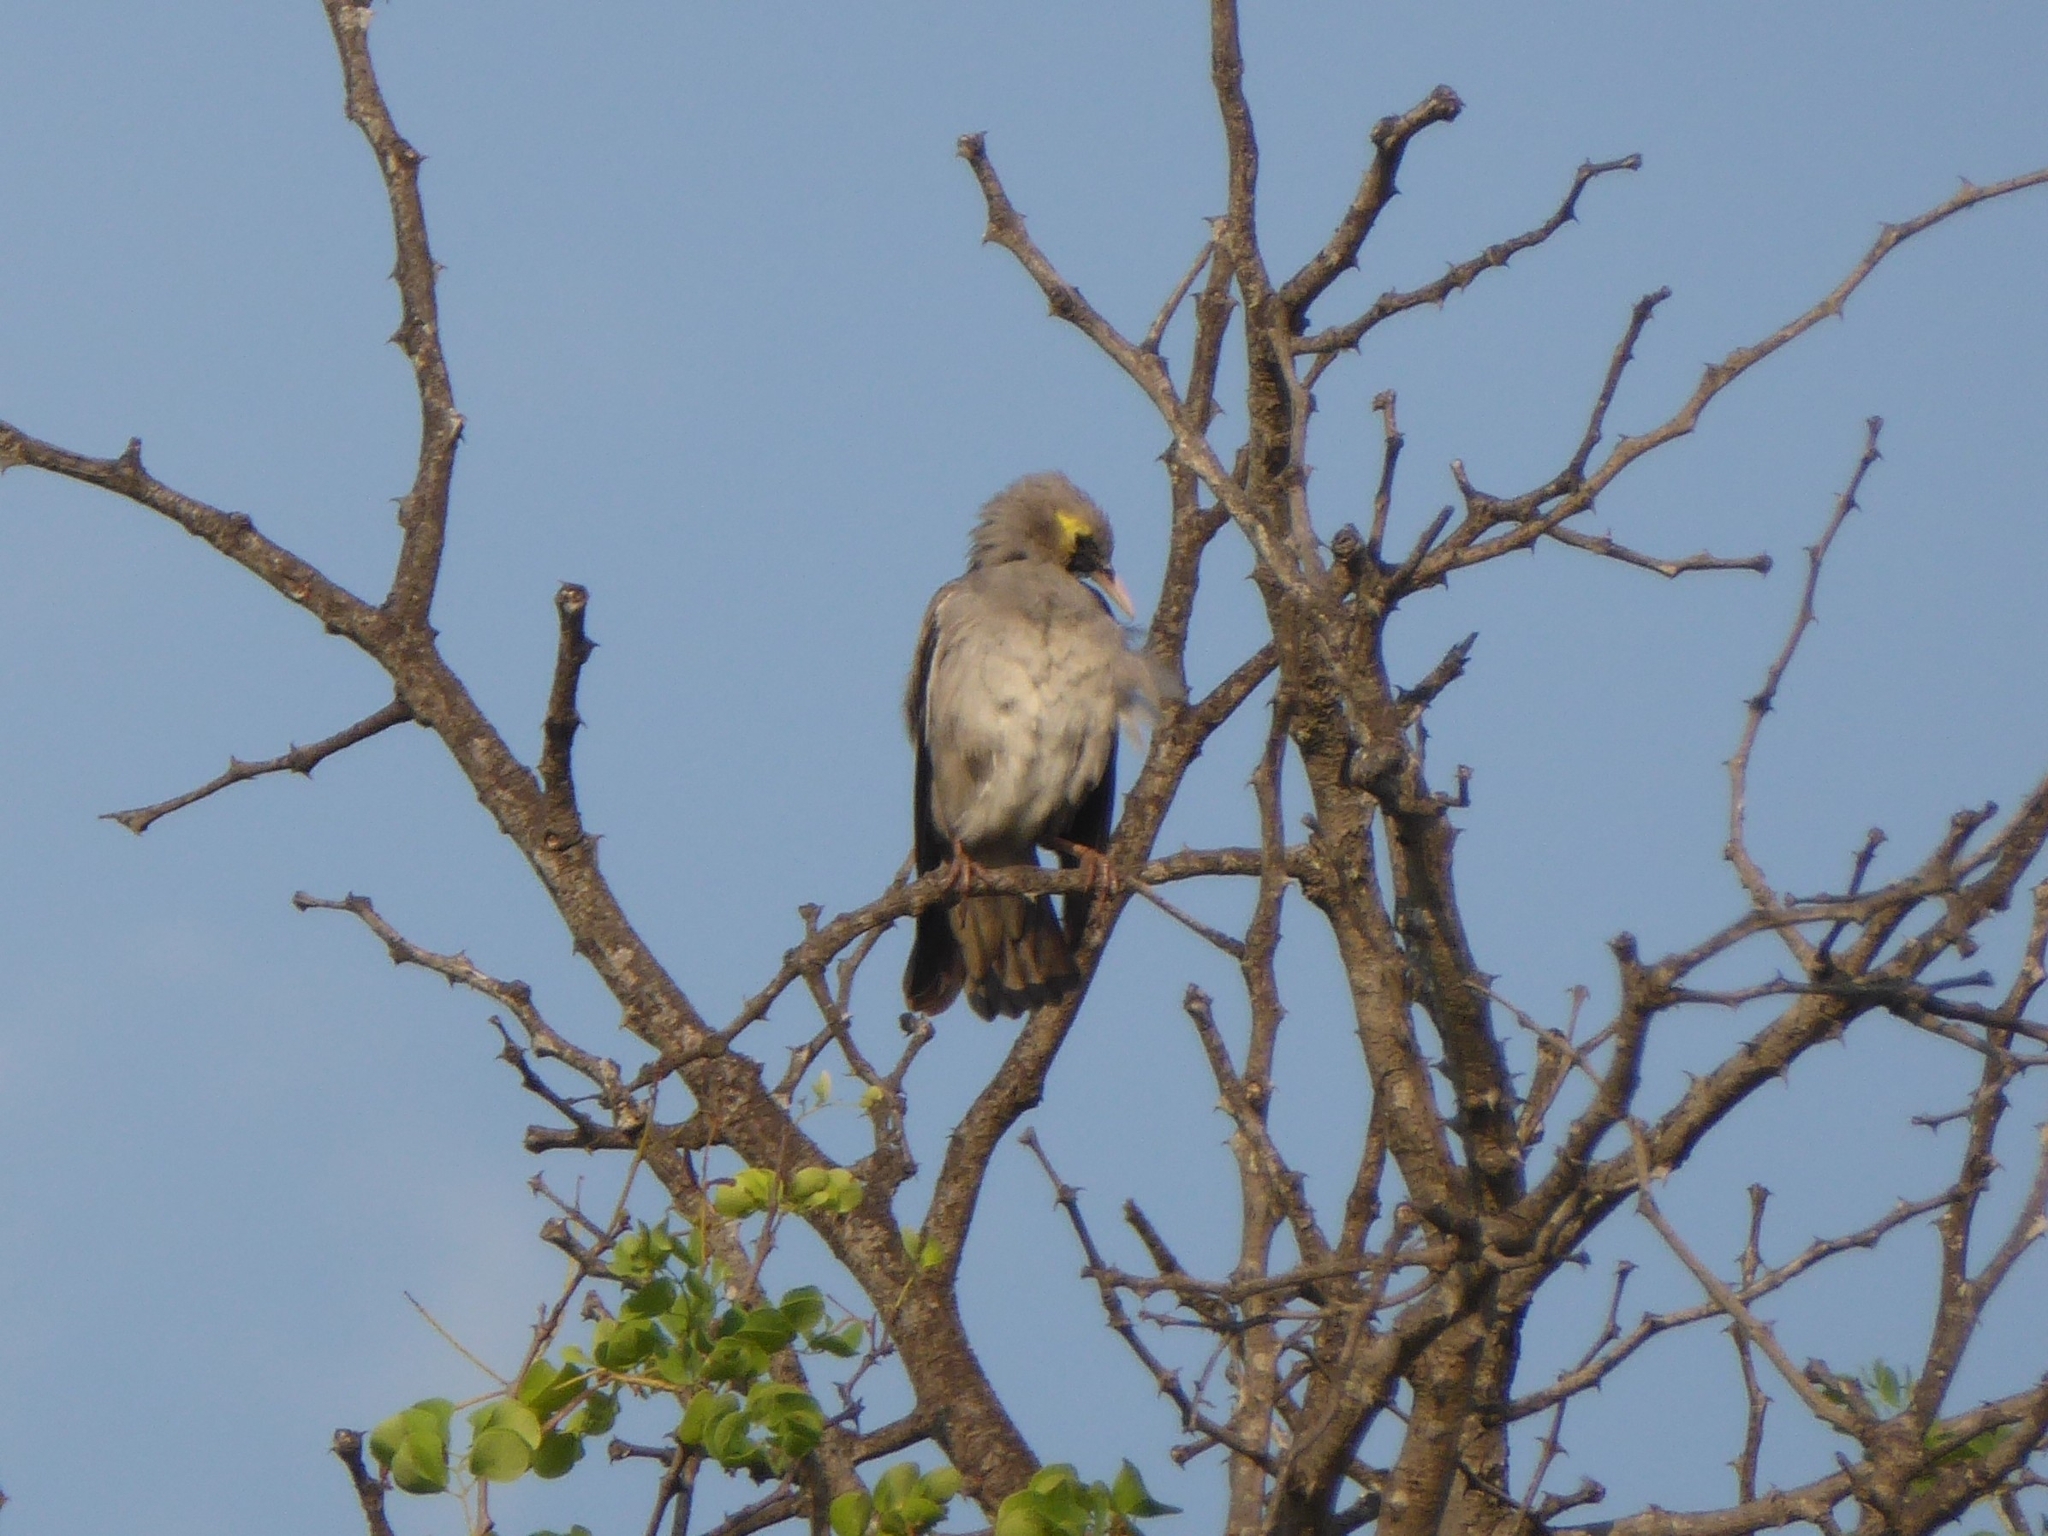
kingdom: Animalia
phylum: Chordata
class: Aves
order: Passeriformes
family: Sturnidae
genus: Creatophora
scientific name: Creatophora cinerea
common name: Wattled starling
